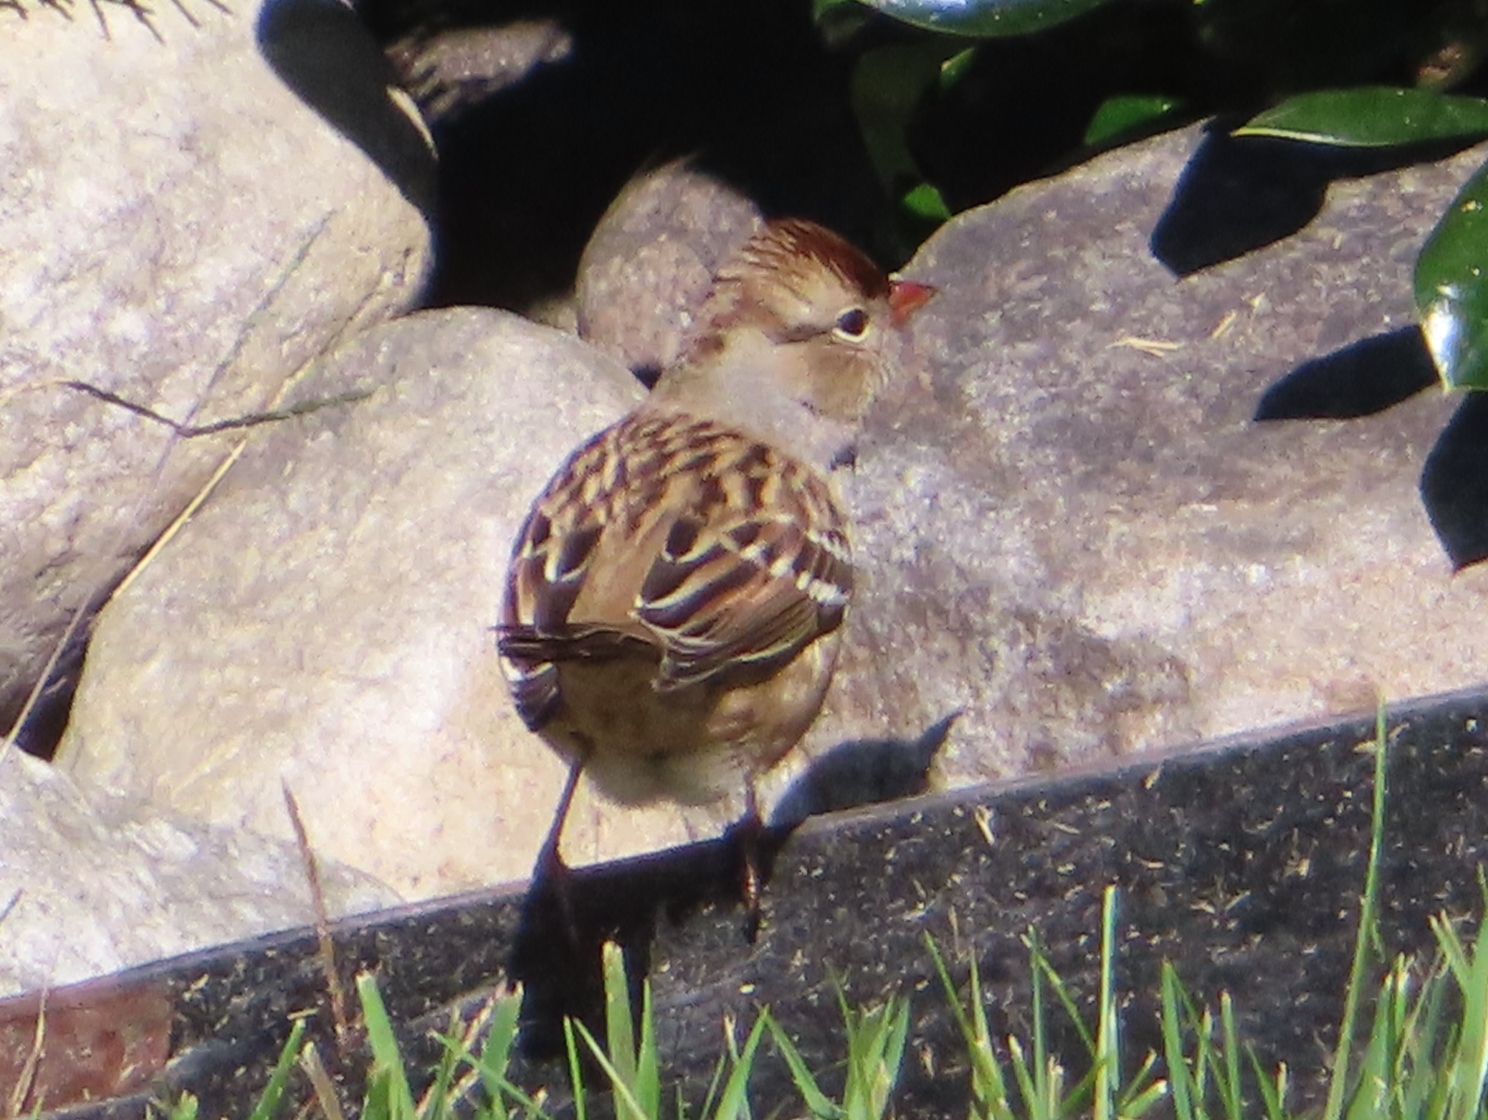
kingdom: Animalia
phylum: Chordata
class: Aves
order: Passeriformes
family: Passerellidae
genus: Zonotrichia
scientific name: Zonotrichia leucophrys
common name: White-crowned sparrow
